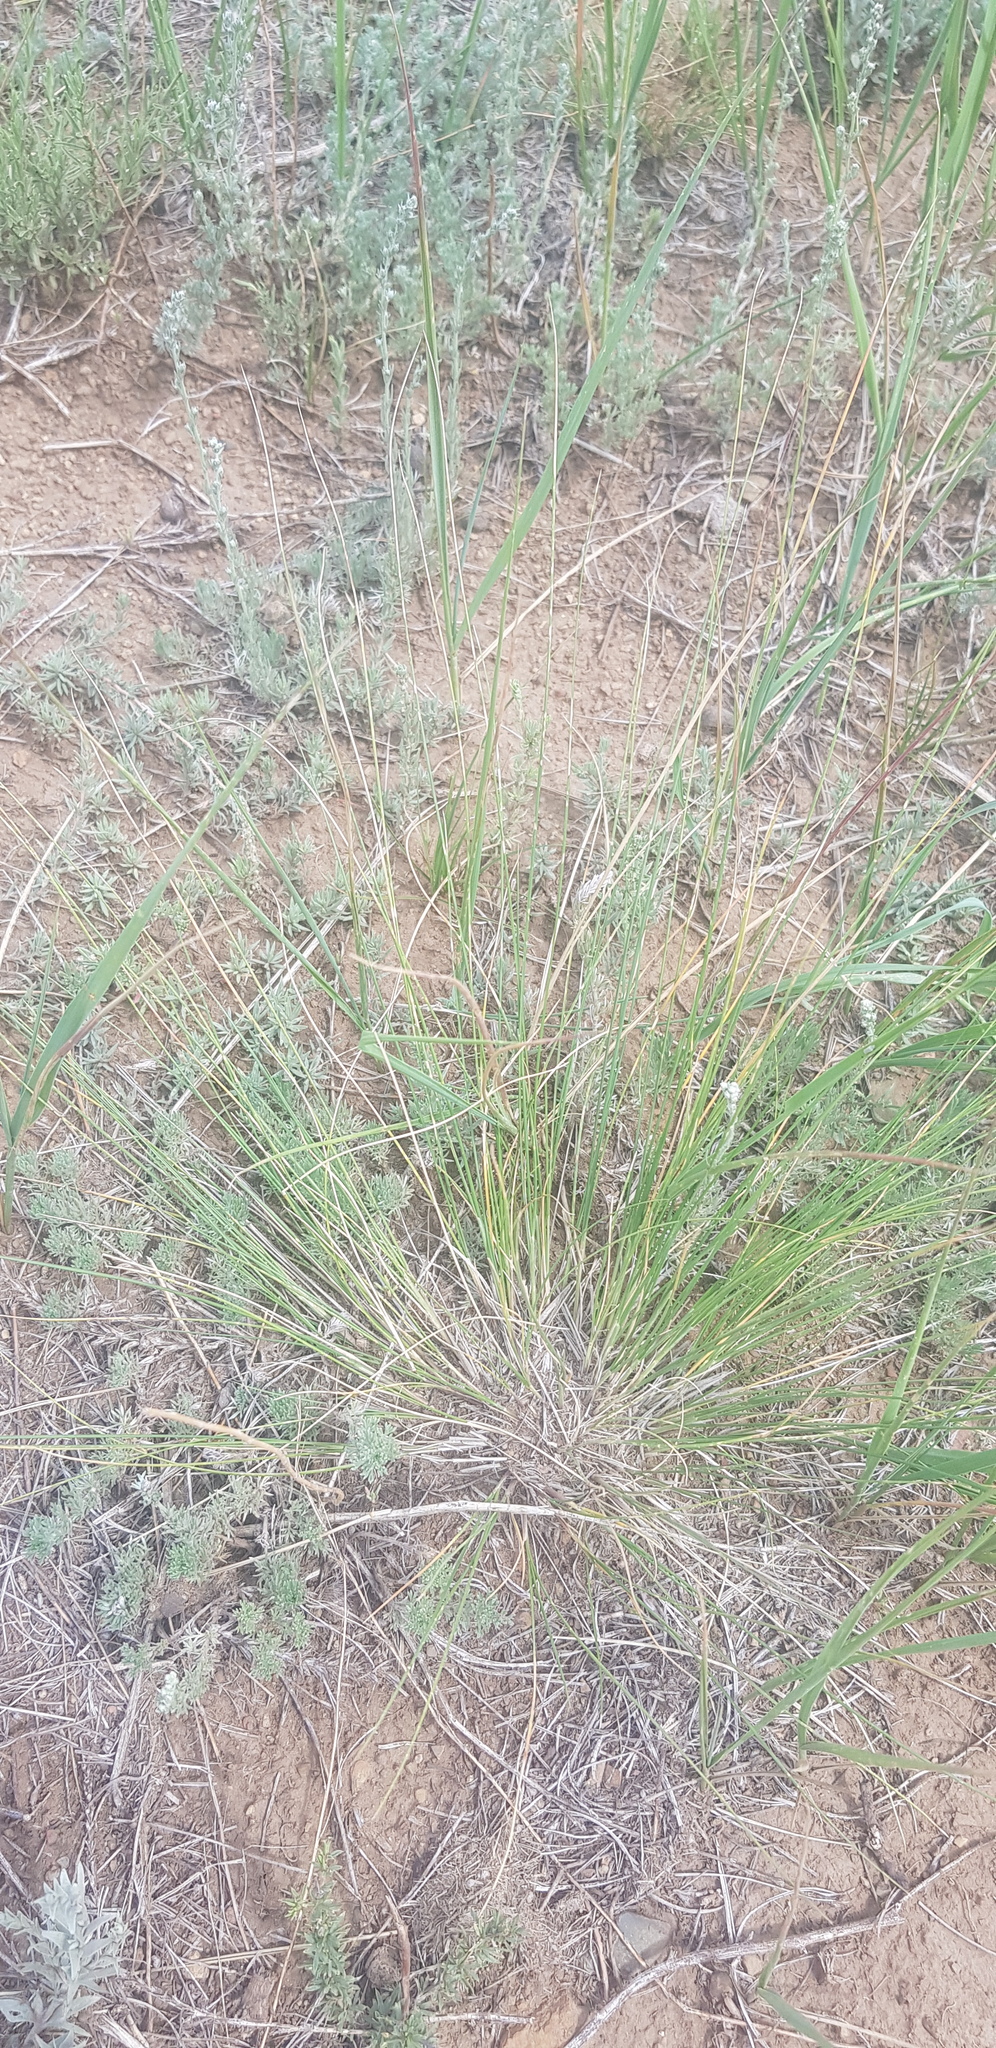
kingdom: Plantae
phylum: Tracheophyta
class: Liliopsida
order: Poales
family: Poaceae
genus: Stipa
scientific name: Stipa krylovii
